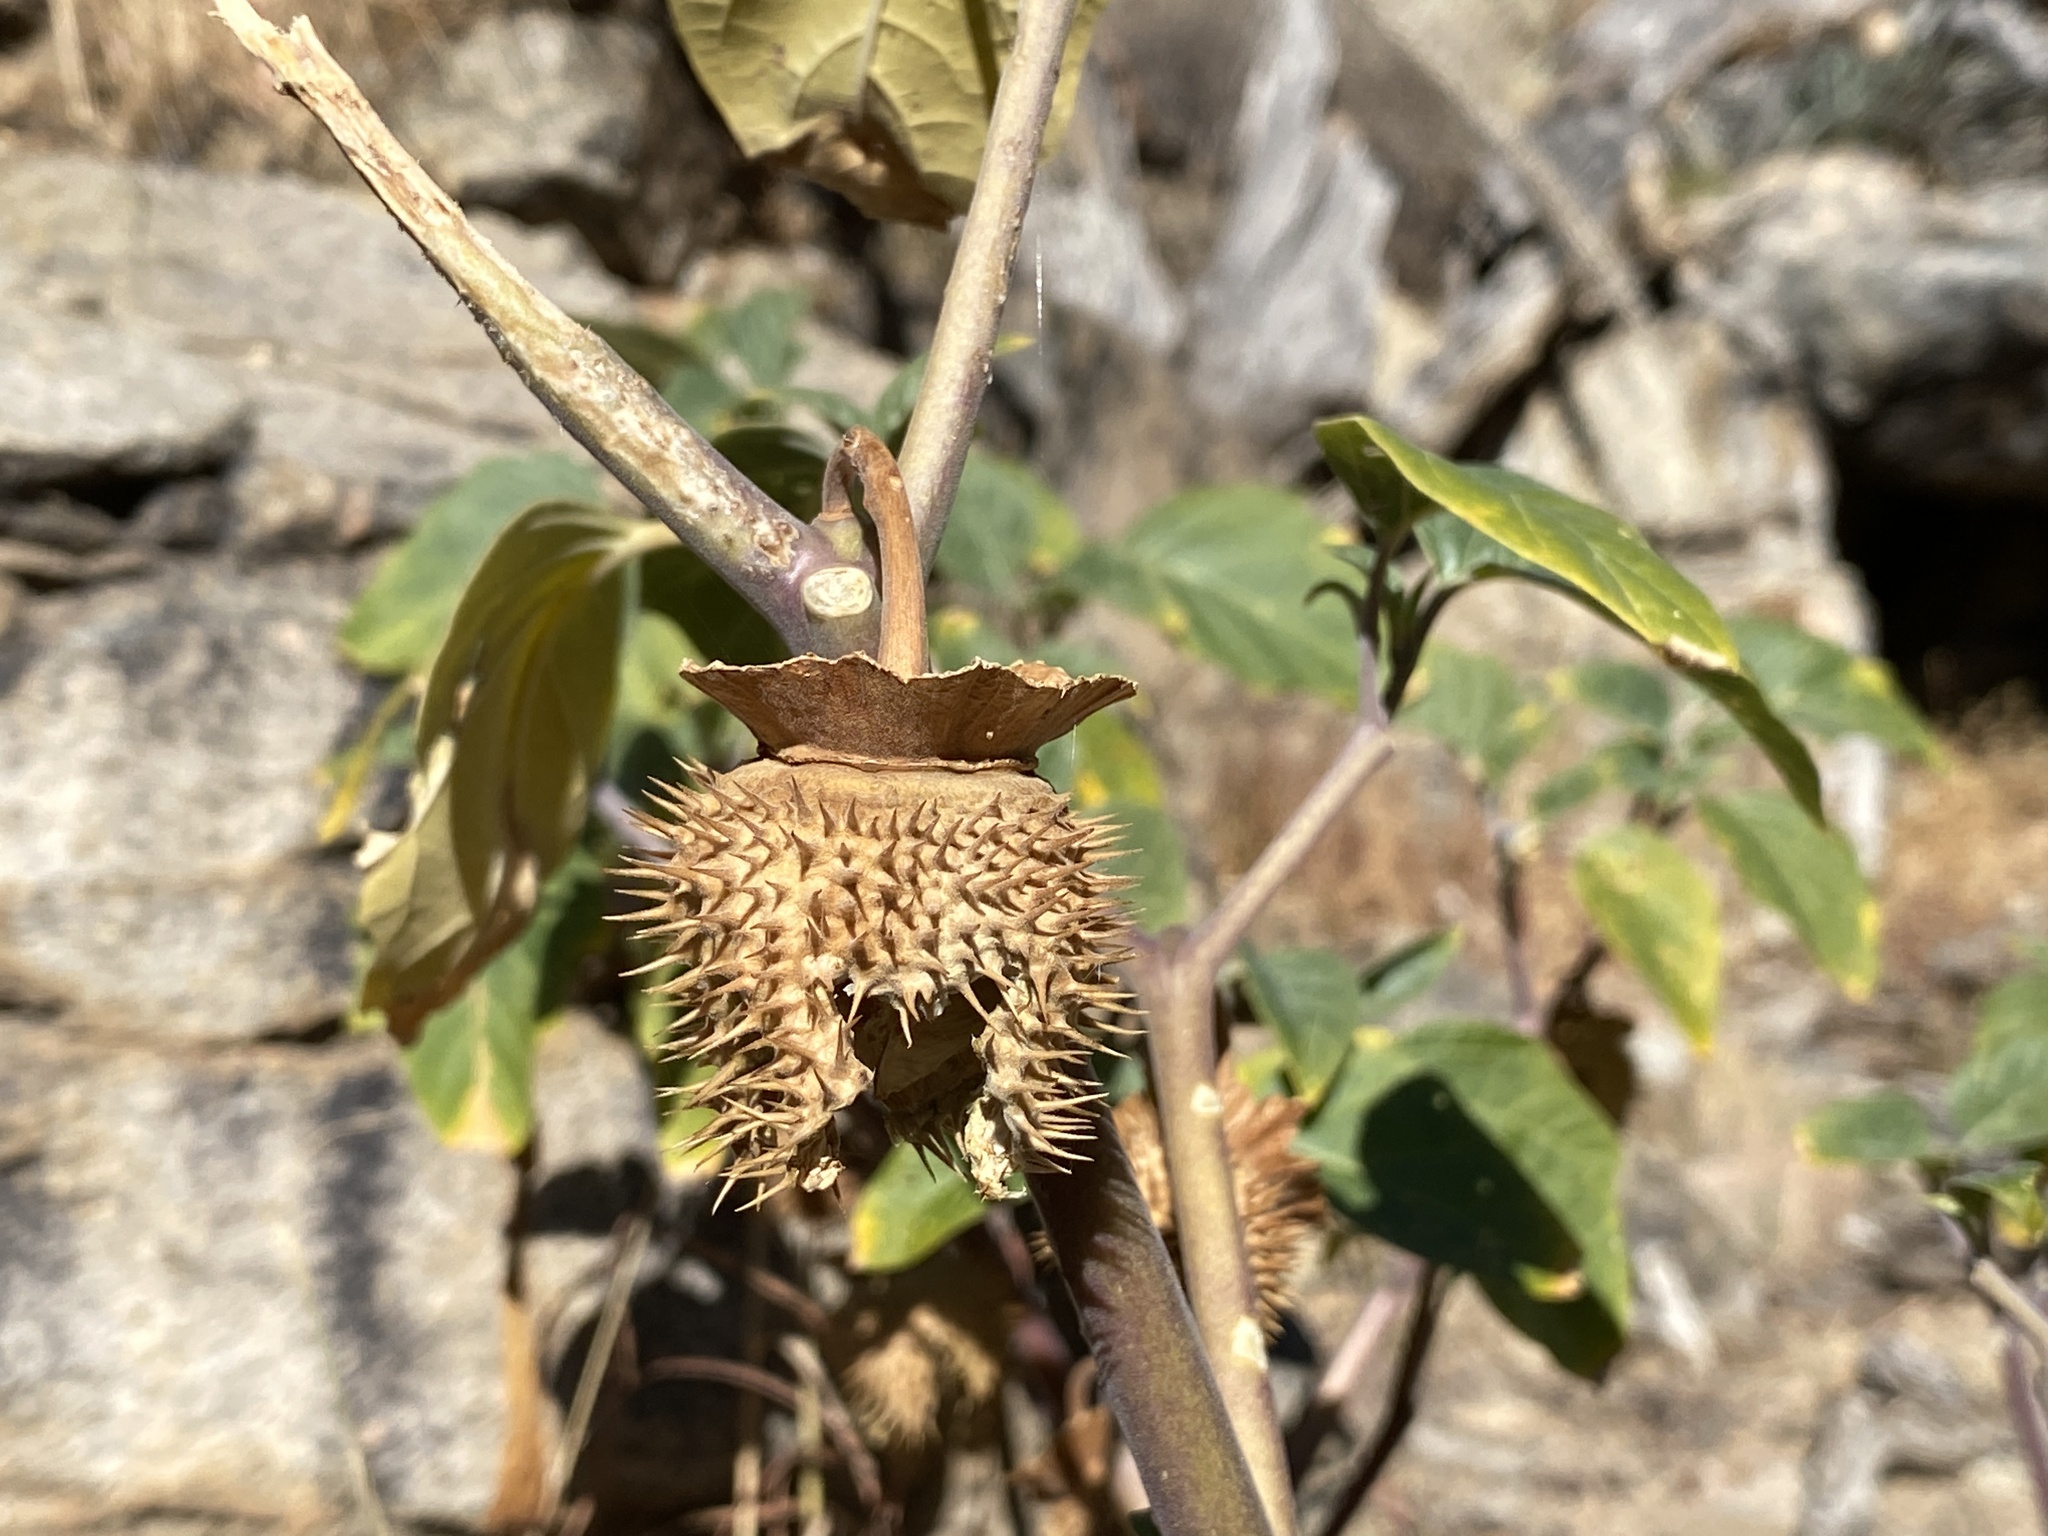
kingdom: Plantae
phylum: Tracheophyta
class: Magnoliopsida
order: Solanales
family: Solanaceae
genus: Datura
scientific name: Datura wrightii
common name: Sacred thorn-apple
